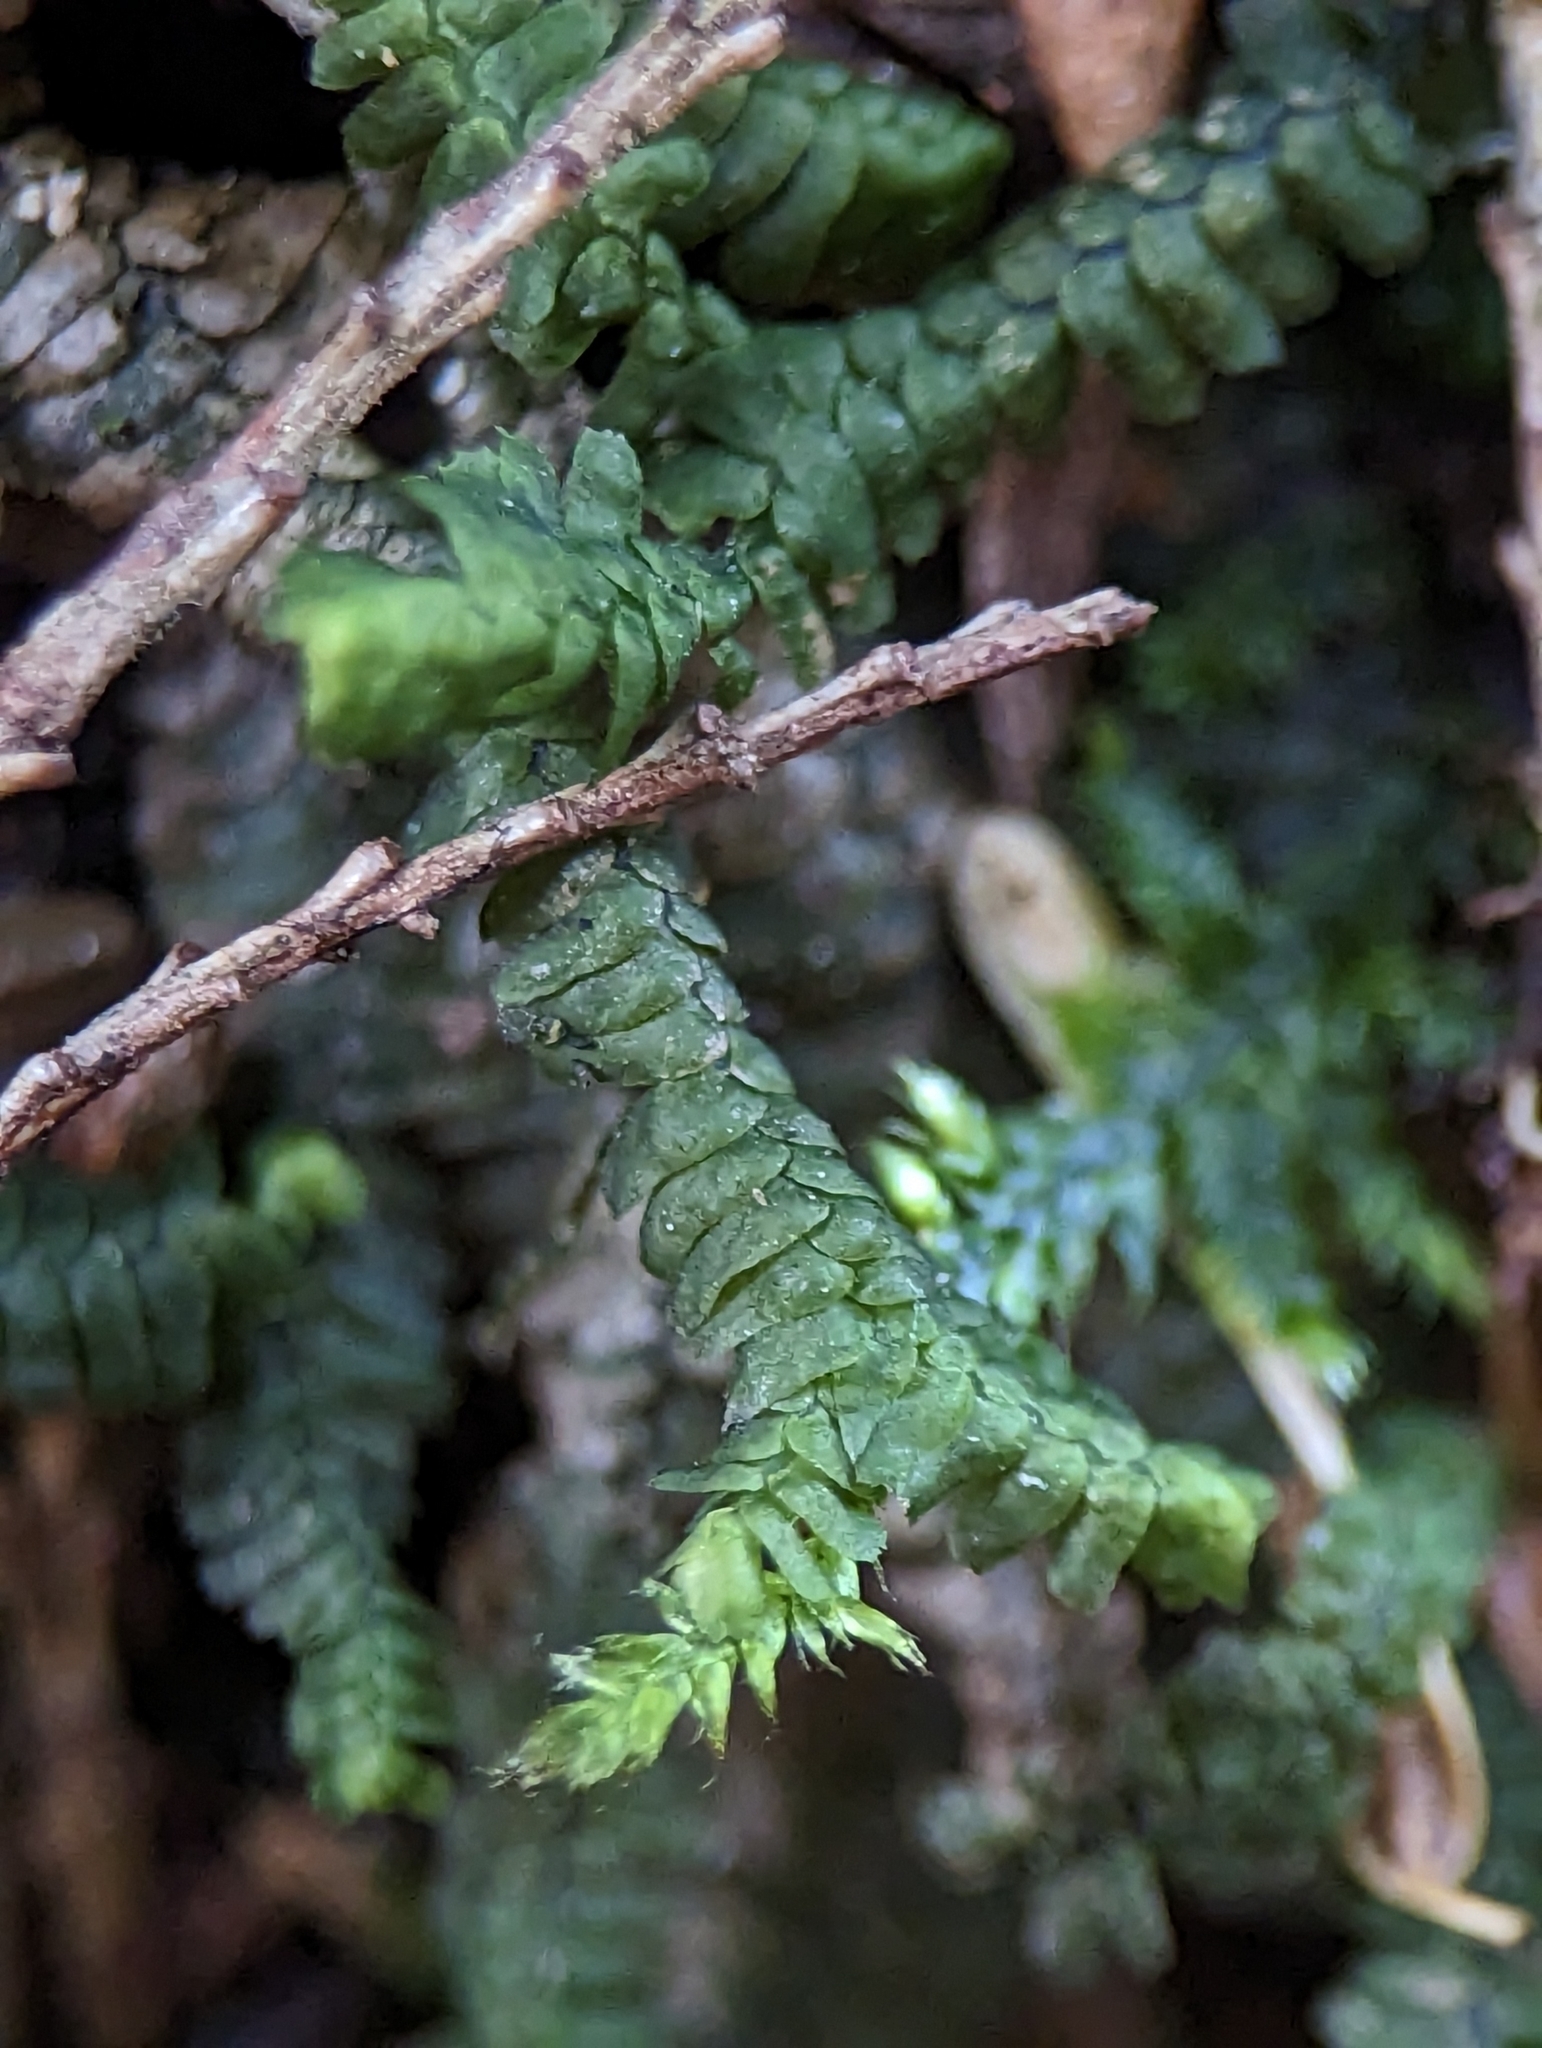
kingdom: Plantae
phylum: Marchantiophyta
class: Jungermanniopsida
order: Jungermanniales
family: Lepidoziaceae
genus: Bazzania
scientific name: Bazzania trilobata
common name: Three-lobed whipwort
